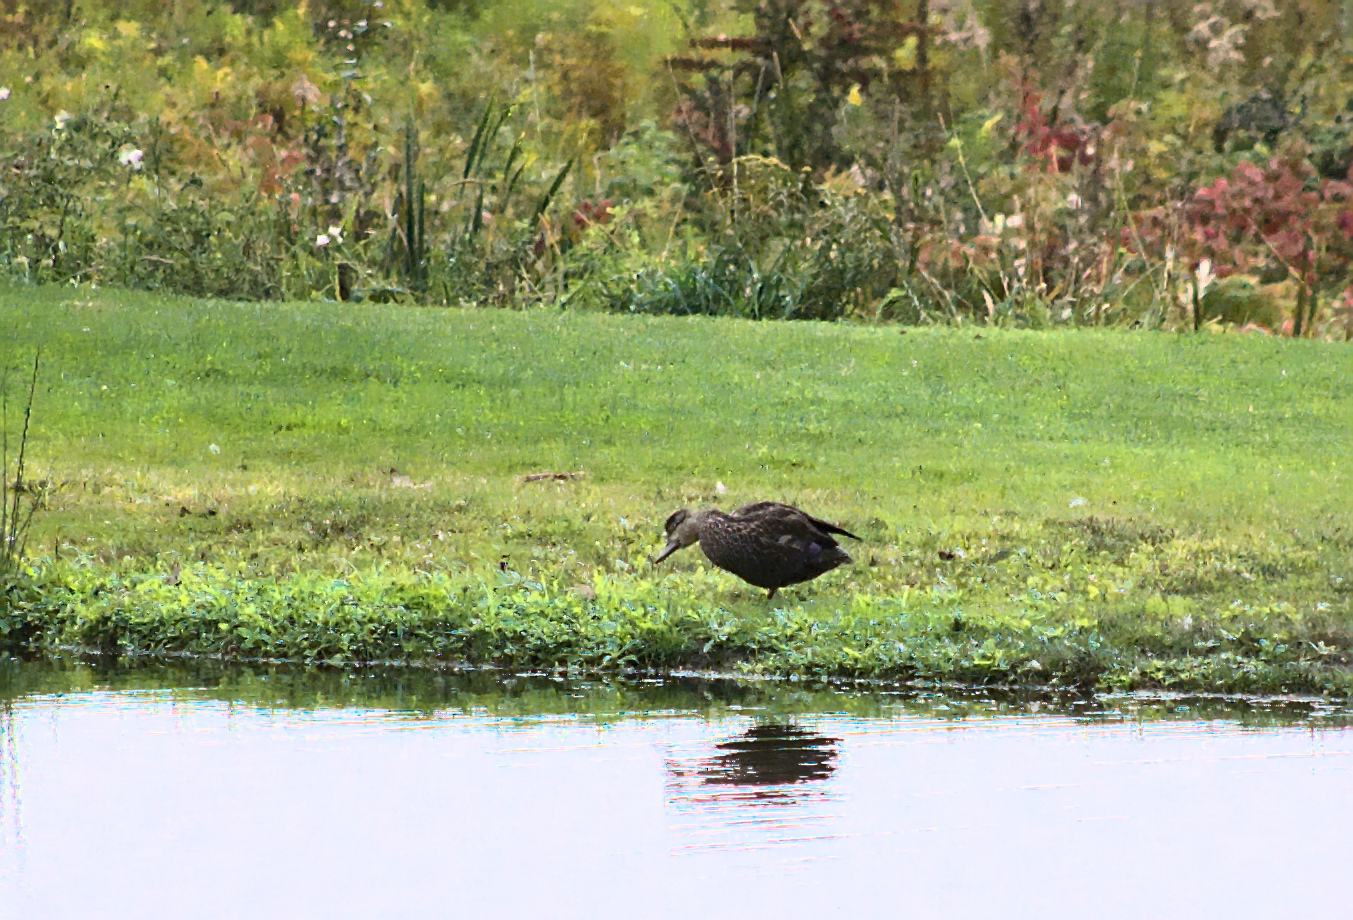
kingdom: Animalia
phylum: Chordata
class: Aves
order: Anseriformes
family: Anatidae
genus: Anas
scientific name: Anas rubripes
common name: American black duck
